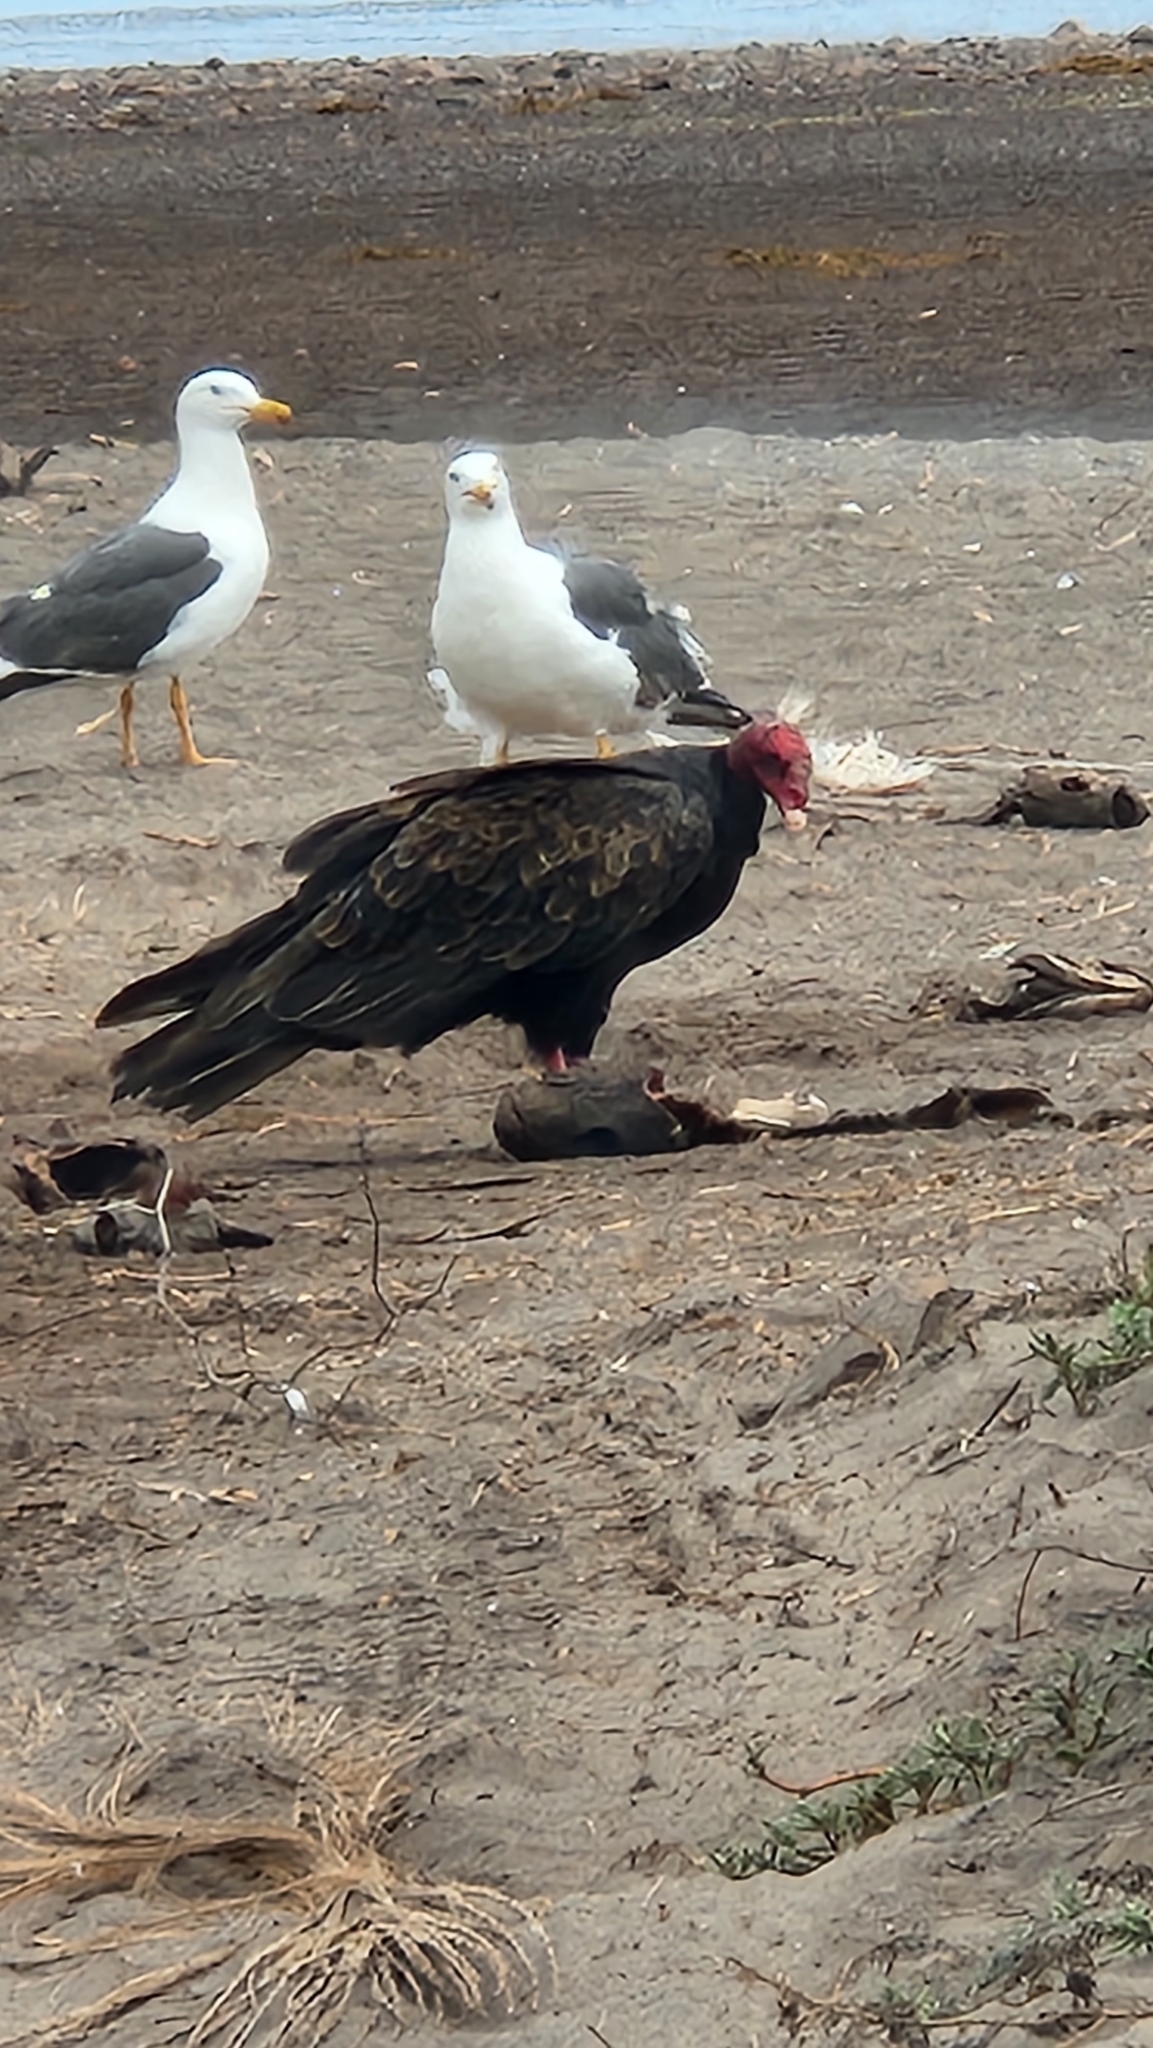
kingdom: Animalia
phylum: Chordata
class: Aves
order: Accipitriformes
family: Cathartidae
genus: Cathartes
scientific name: Cathartes aura
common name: Turkey vulture
